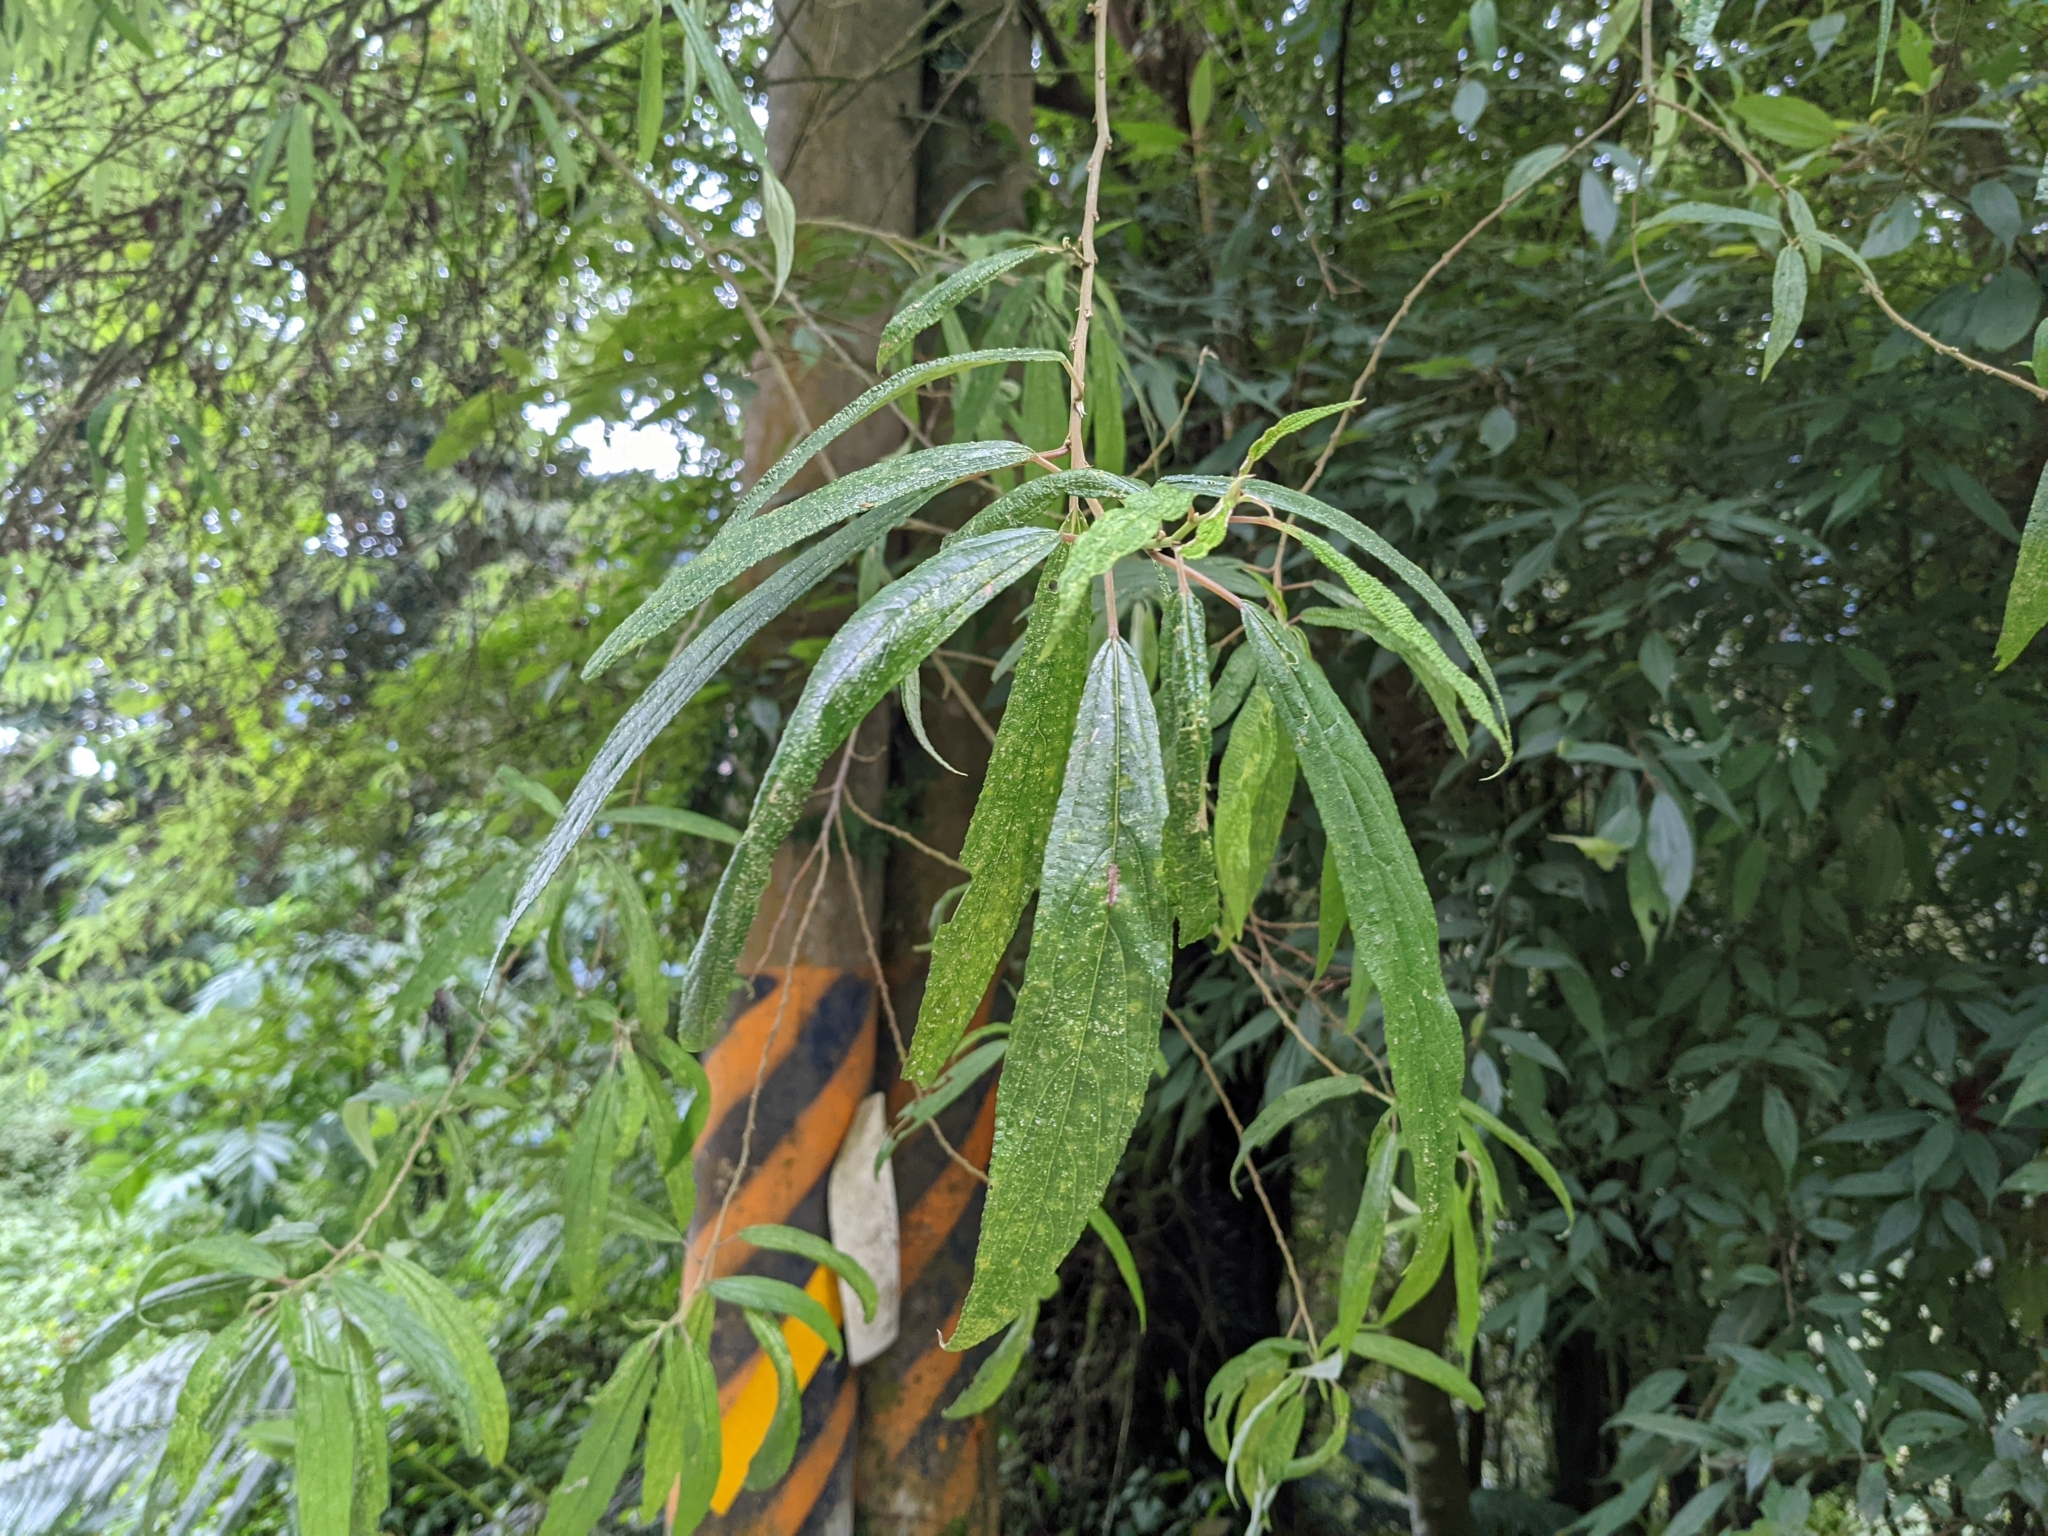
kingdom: Plantae
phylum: Tracheophyta
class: Magnoliopsida
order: Rosales
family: Urticaceae
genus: Debregeasia
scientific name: Debregeasia orientalis
